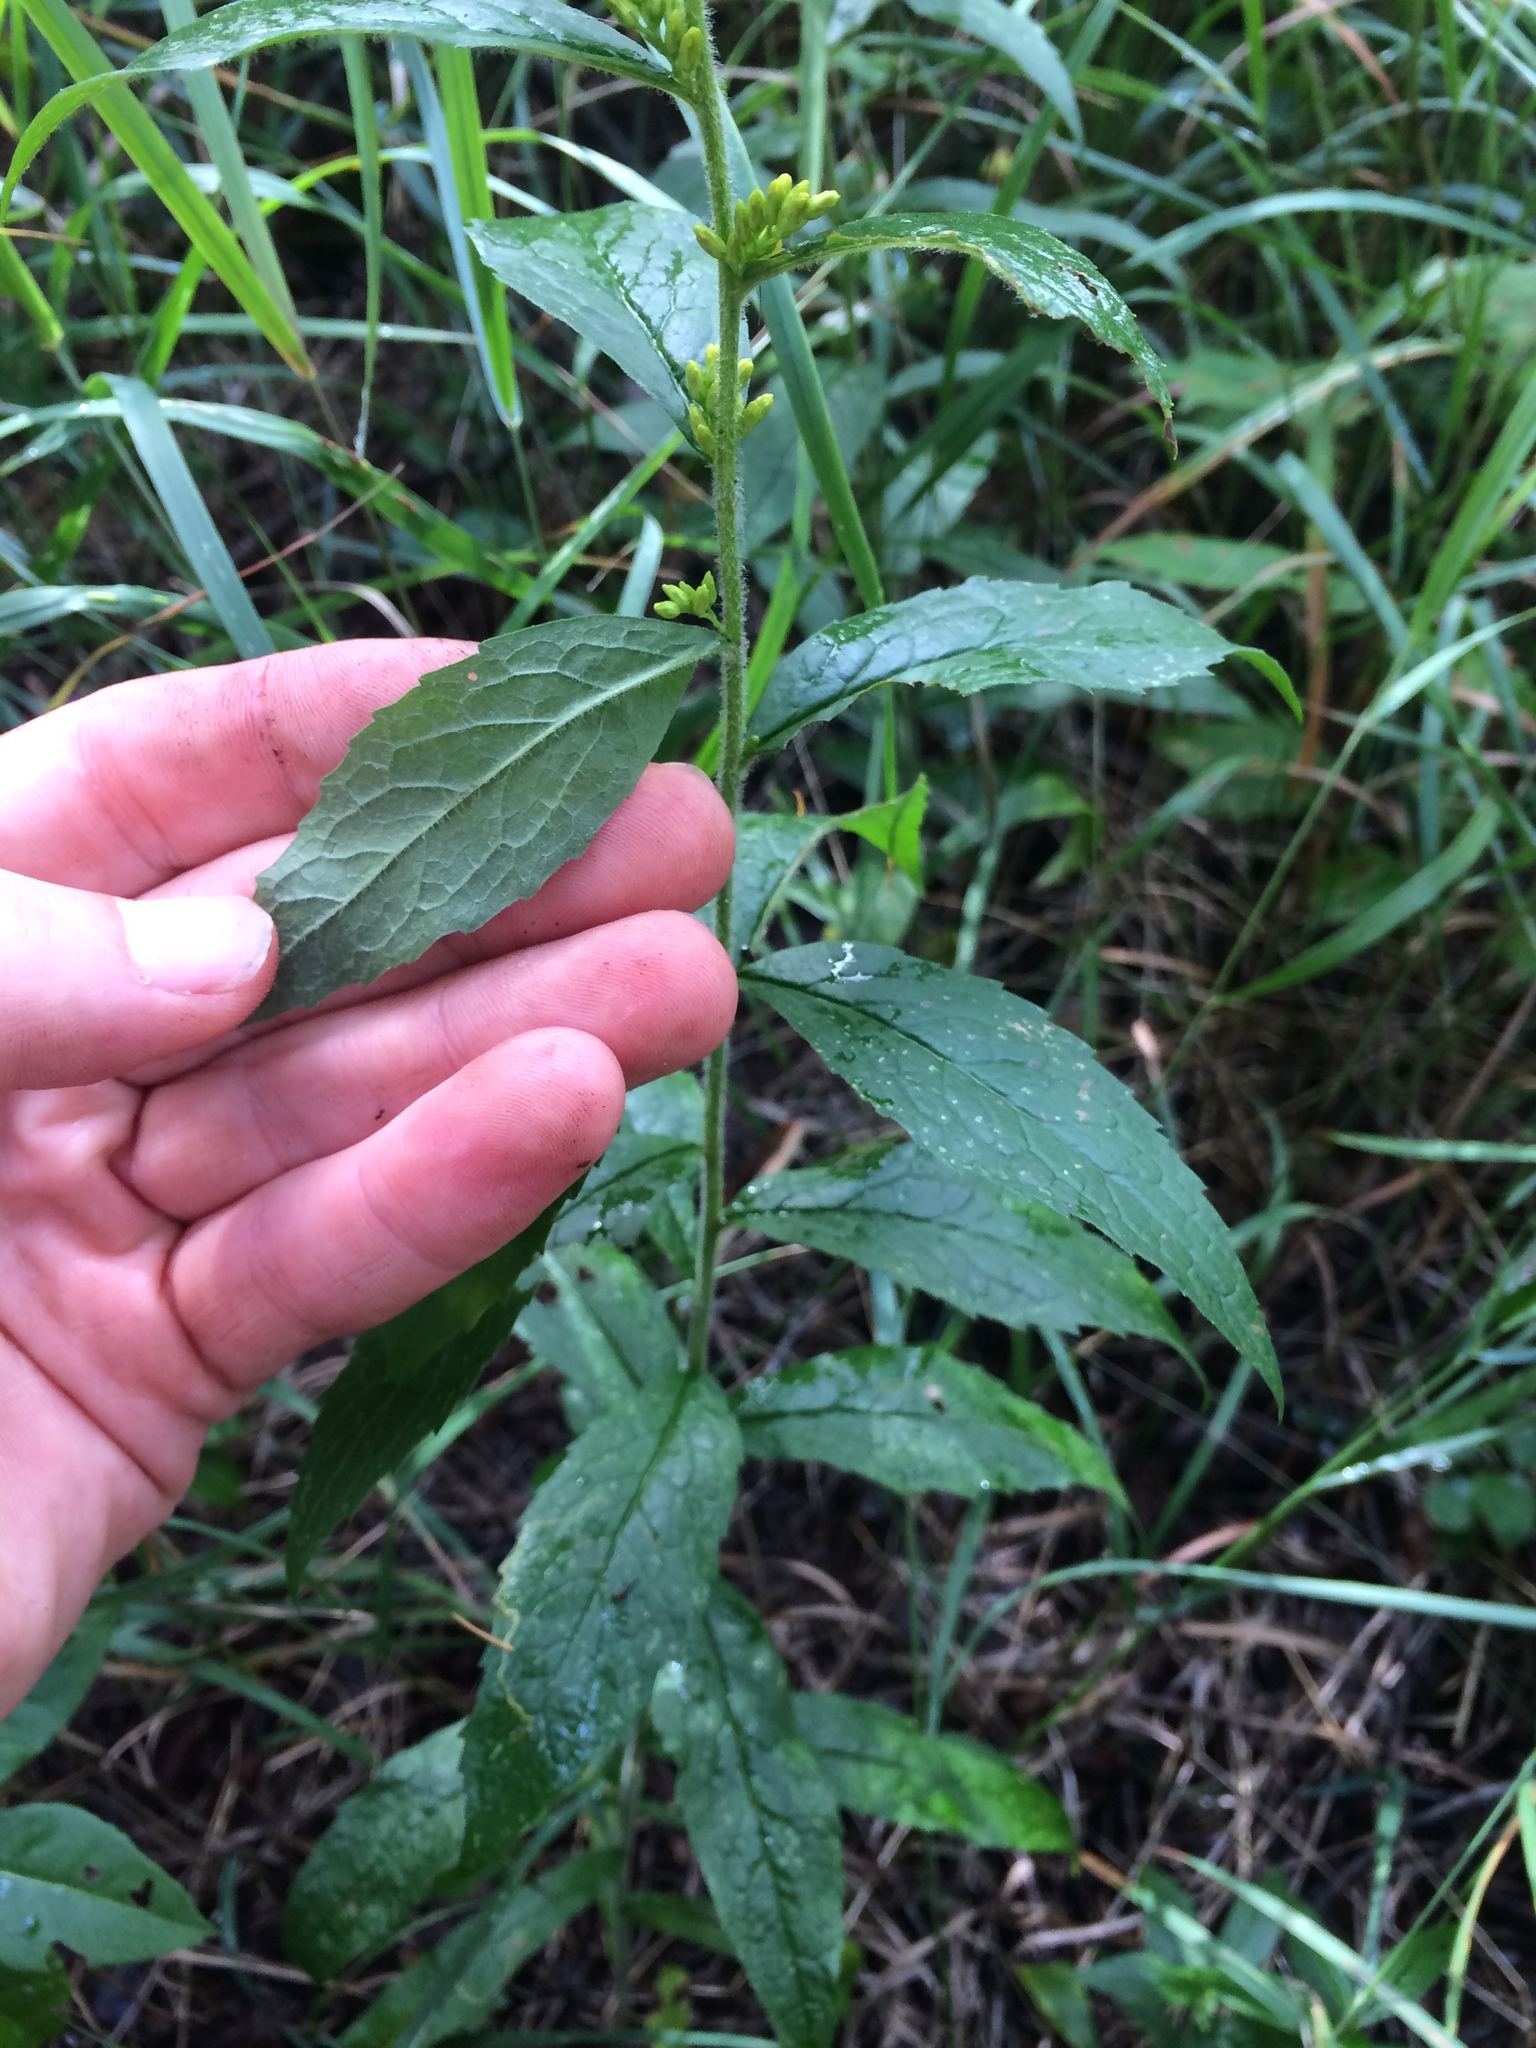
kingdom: Plantae
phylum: Tracheophyta
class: Magnoliopsida
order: Asterales
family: Asteraceae
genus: Solidago
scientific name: Solidago hispida
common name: Hairy goldenrod
